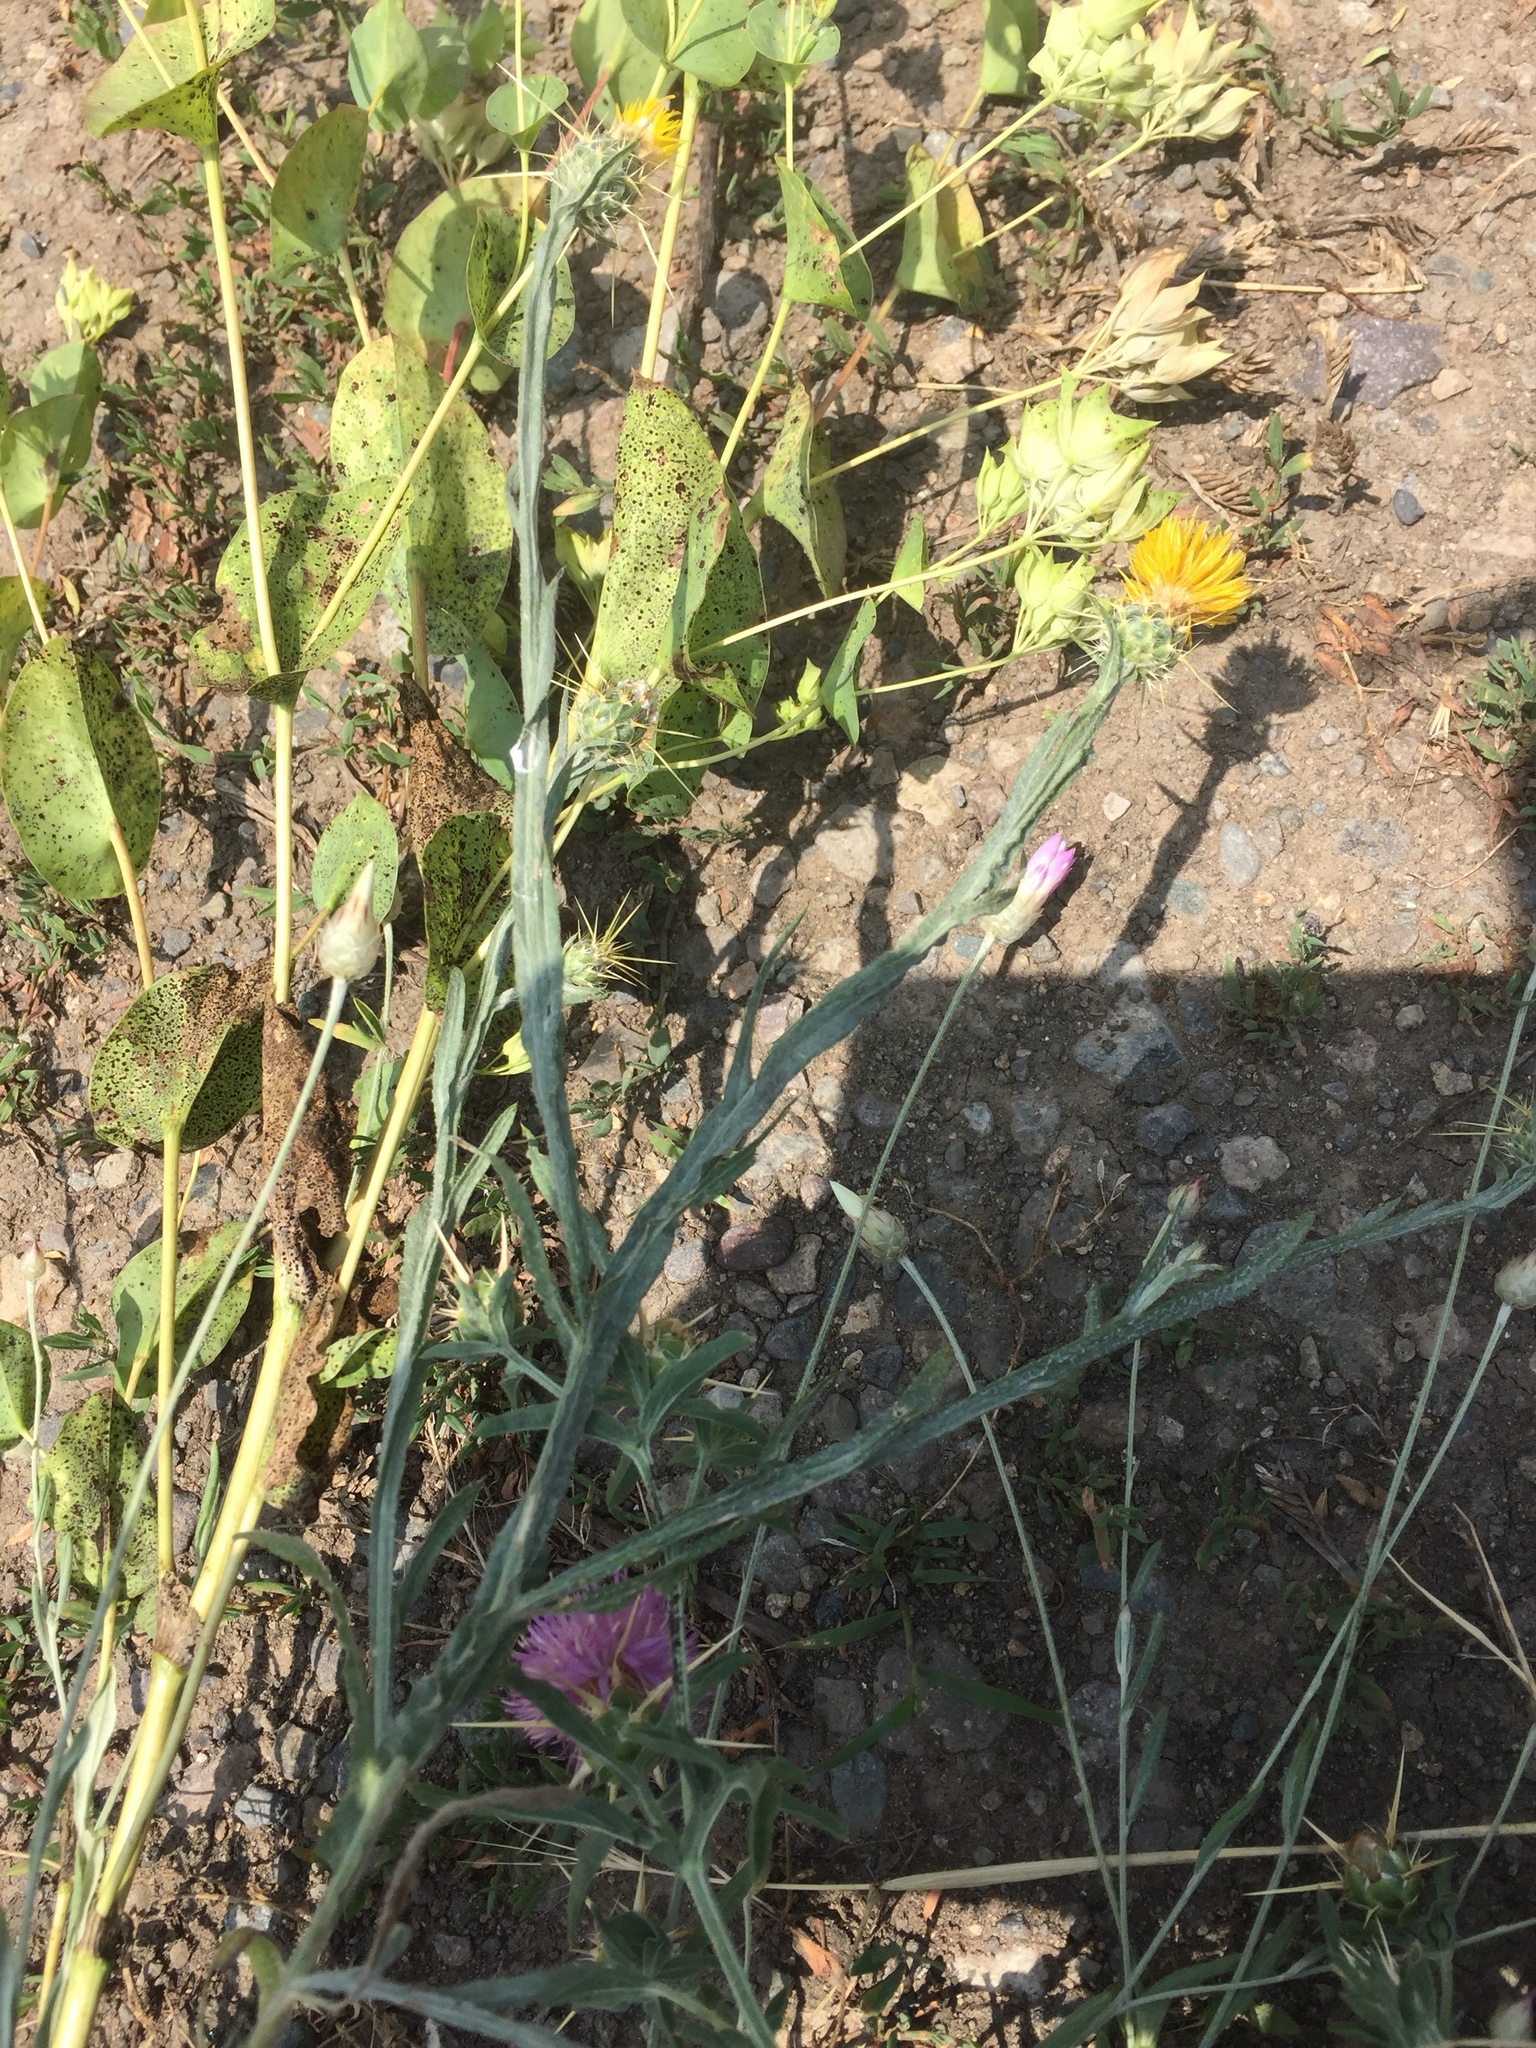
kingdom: Plantae
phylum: Tracheophyta
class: Magnoliopsida
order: Asterales
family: Asteraceae
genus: Centaurea
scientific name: Centaurea solstitialis
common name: Yellow star-thistle
